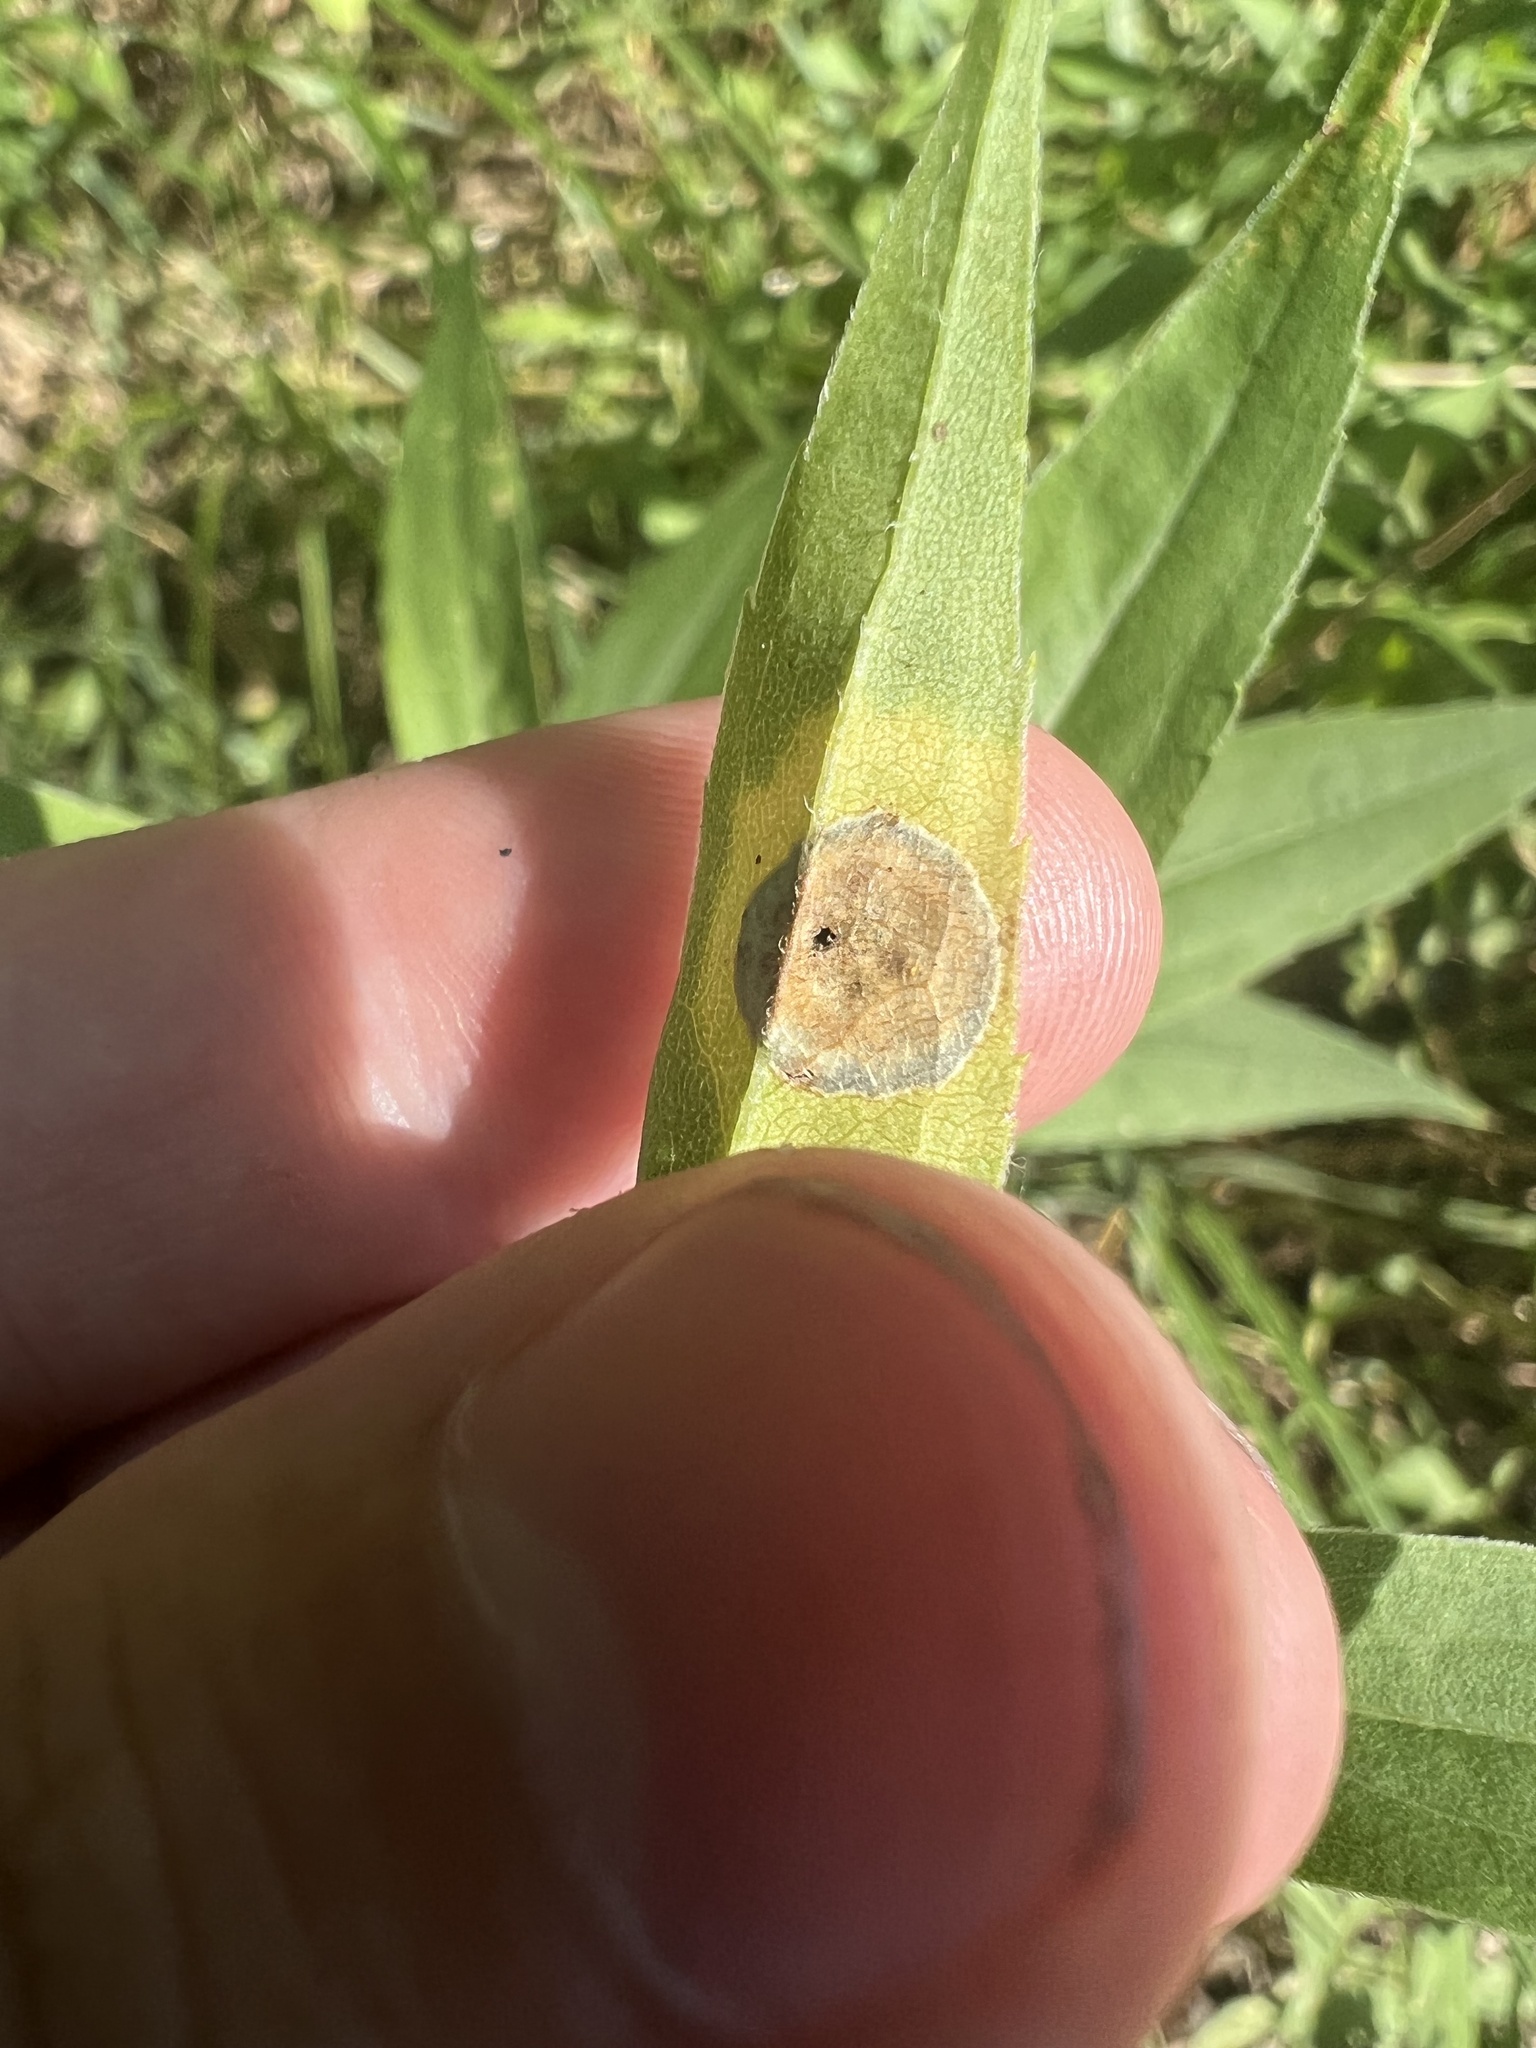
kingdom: Animalia
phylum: Arthropoda
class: Insecta
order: Diptera
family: Cecidomyiidae
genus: Asteromyia
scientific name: Asteromyia carbonifera
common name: Carbonifera goldenrod gall midge
